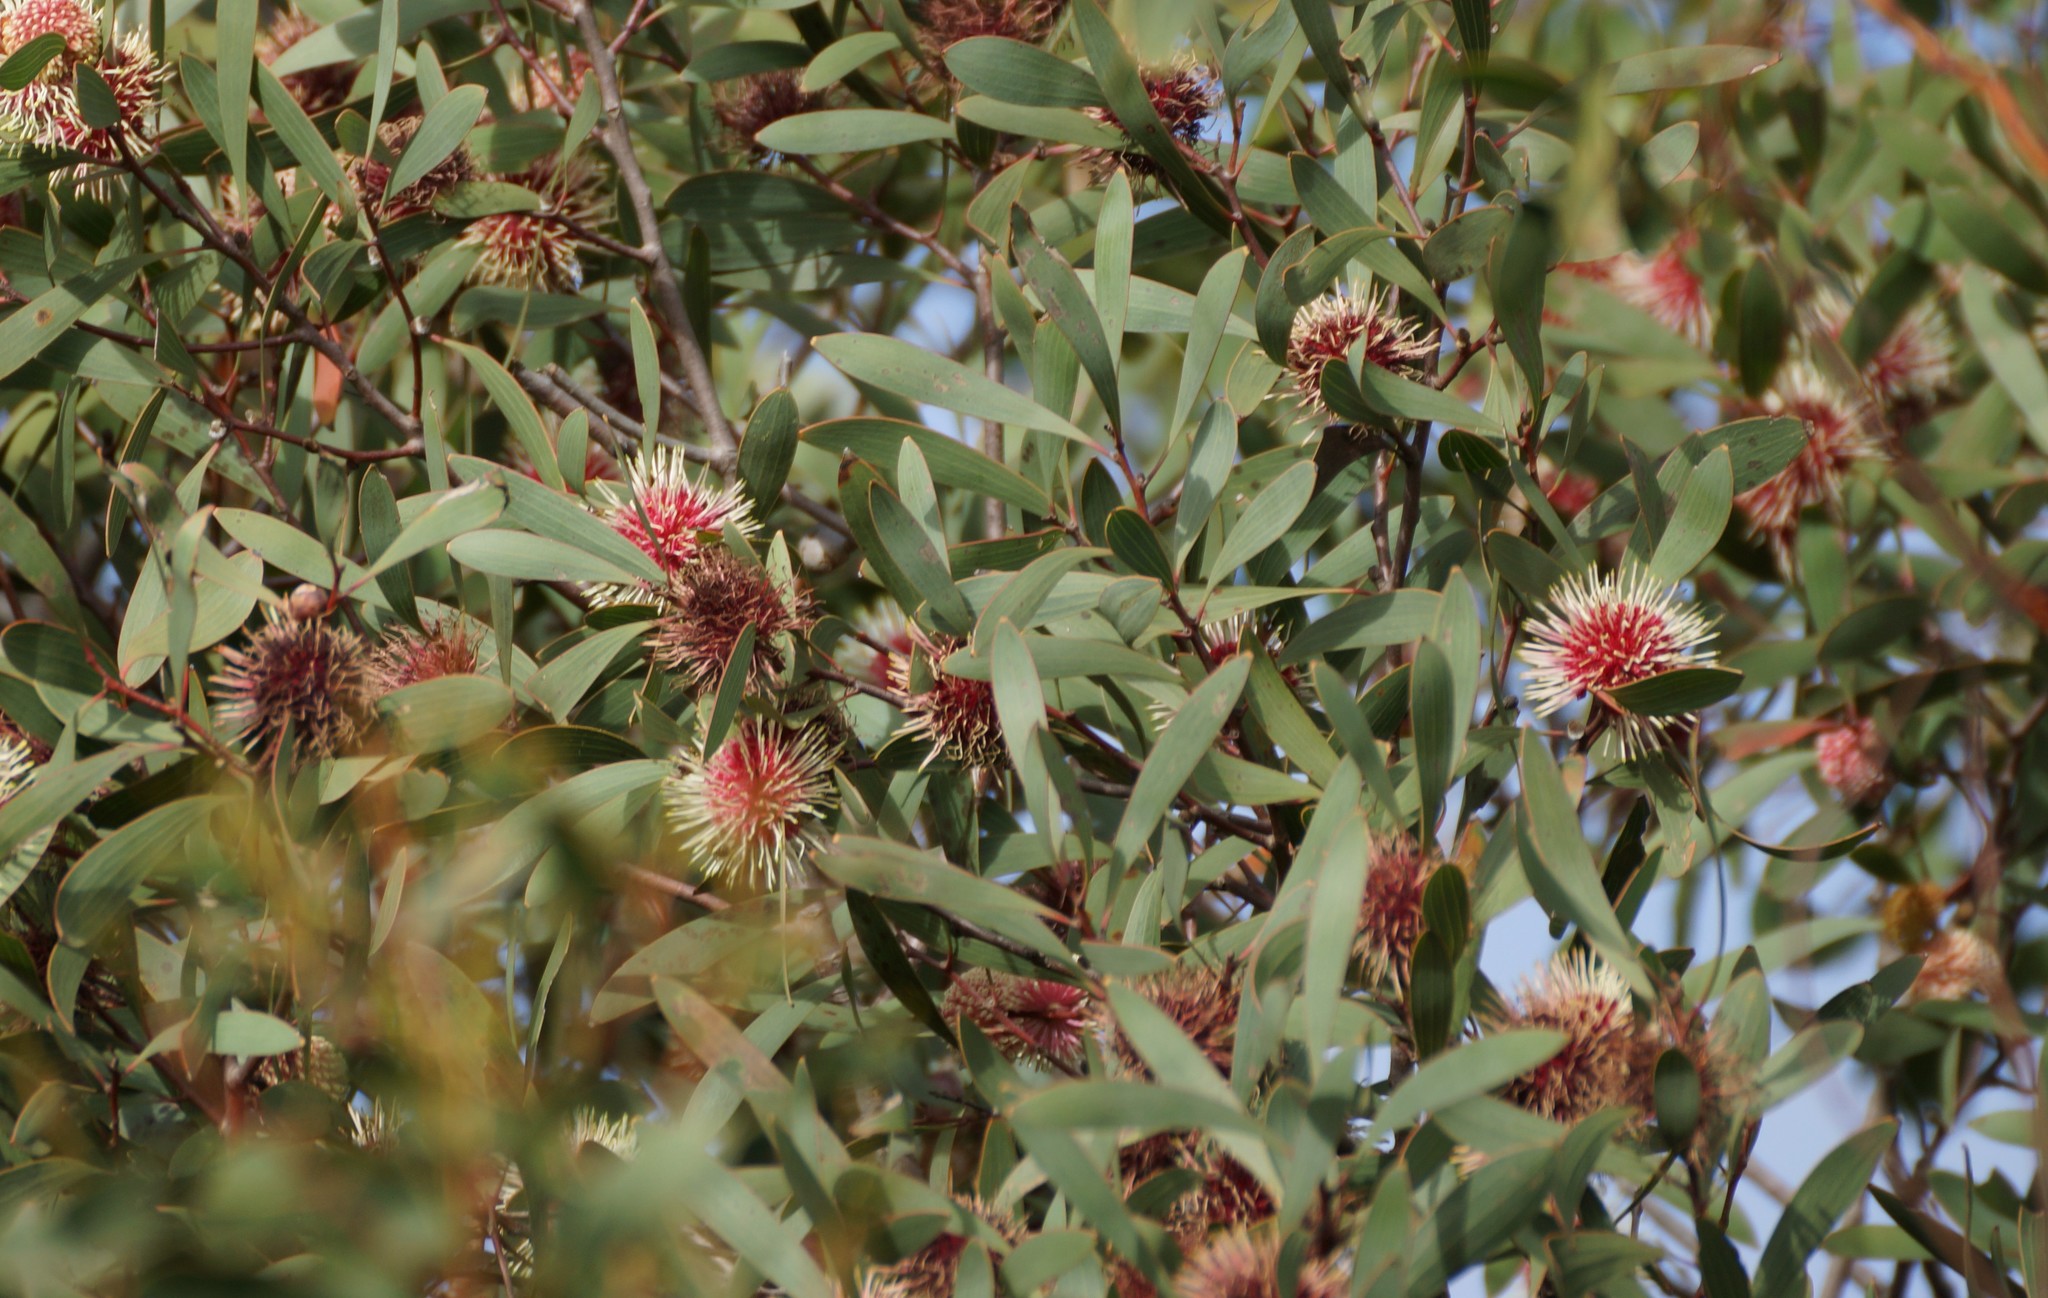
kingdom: Plantae
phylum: Tracheophyta
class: Magnoliopsida
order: Proteales
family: Proteaceae
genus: Hakea
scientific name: Hakea laurina
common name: Cushion hakea
